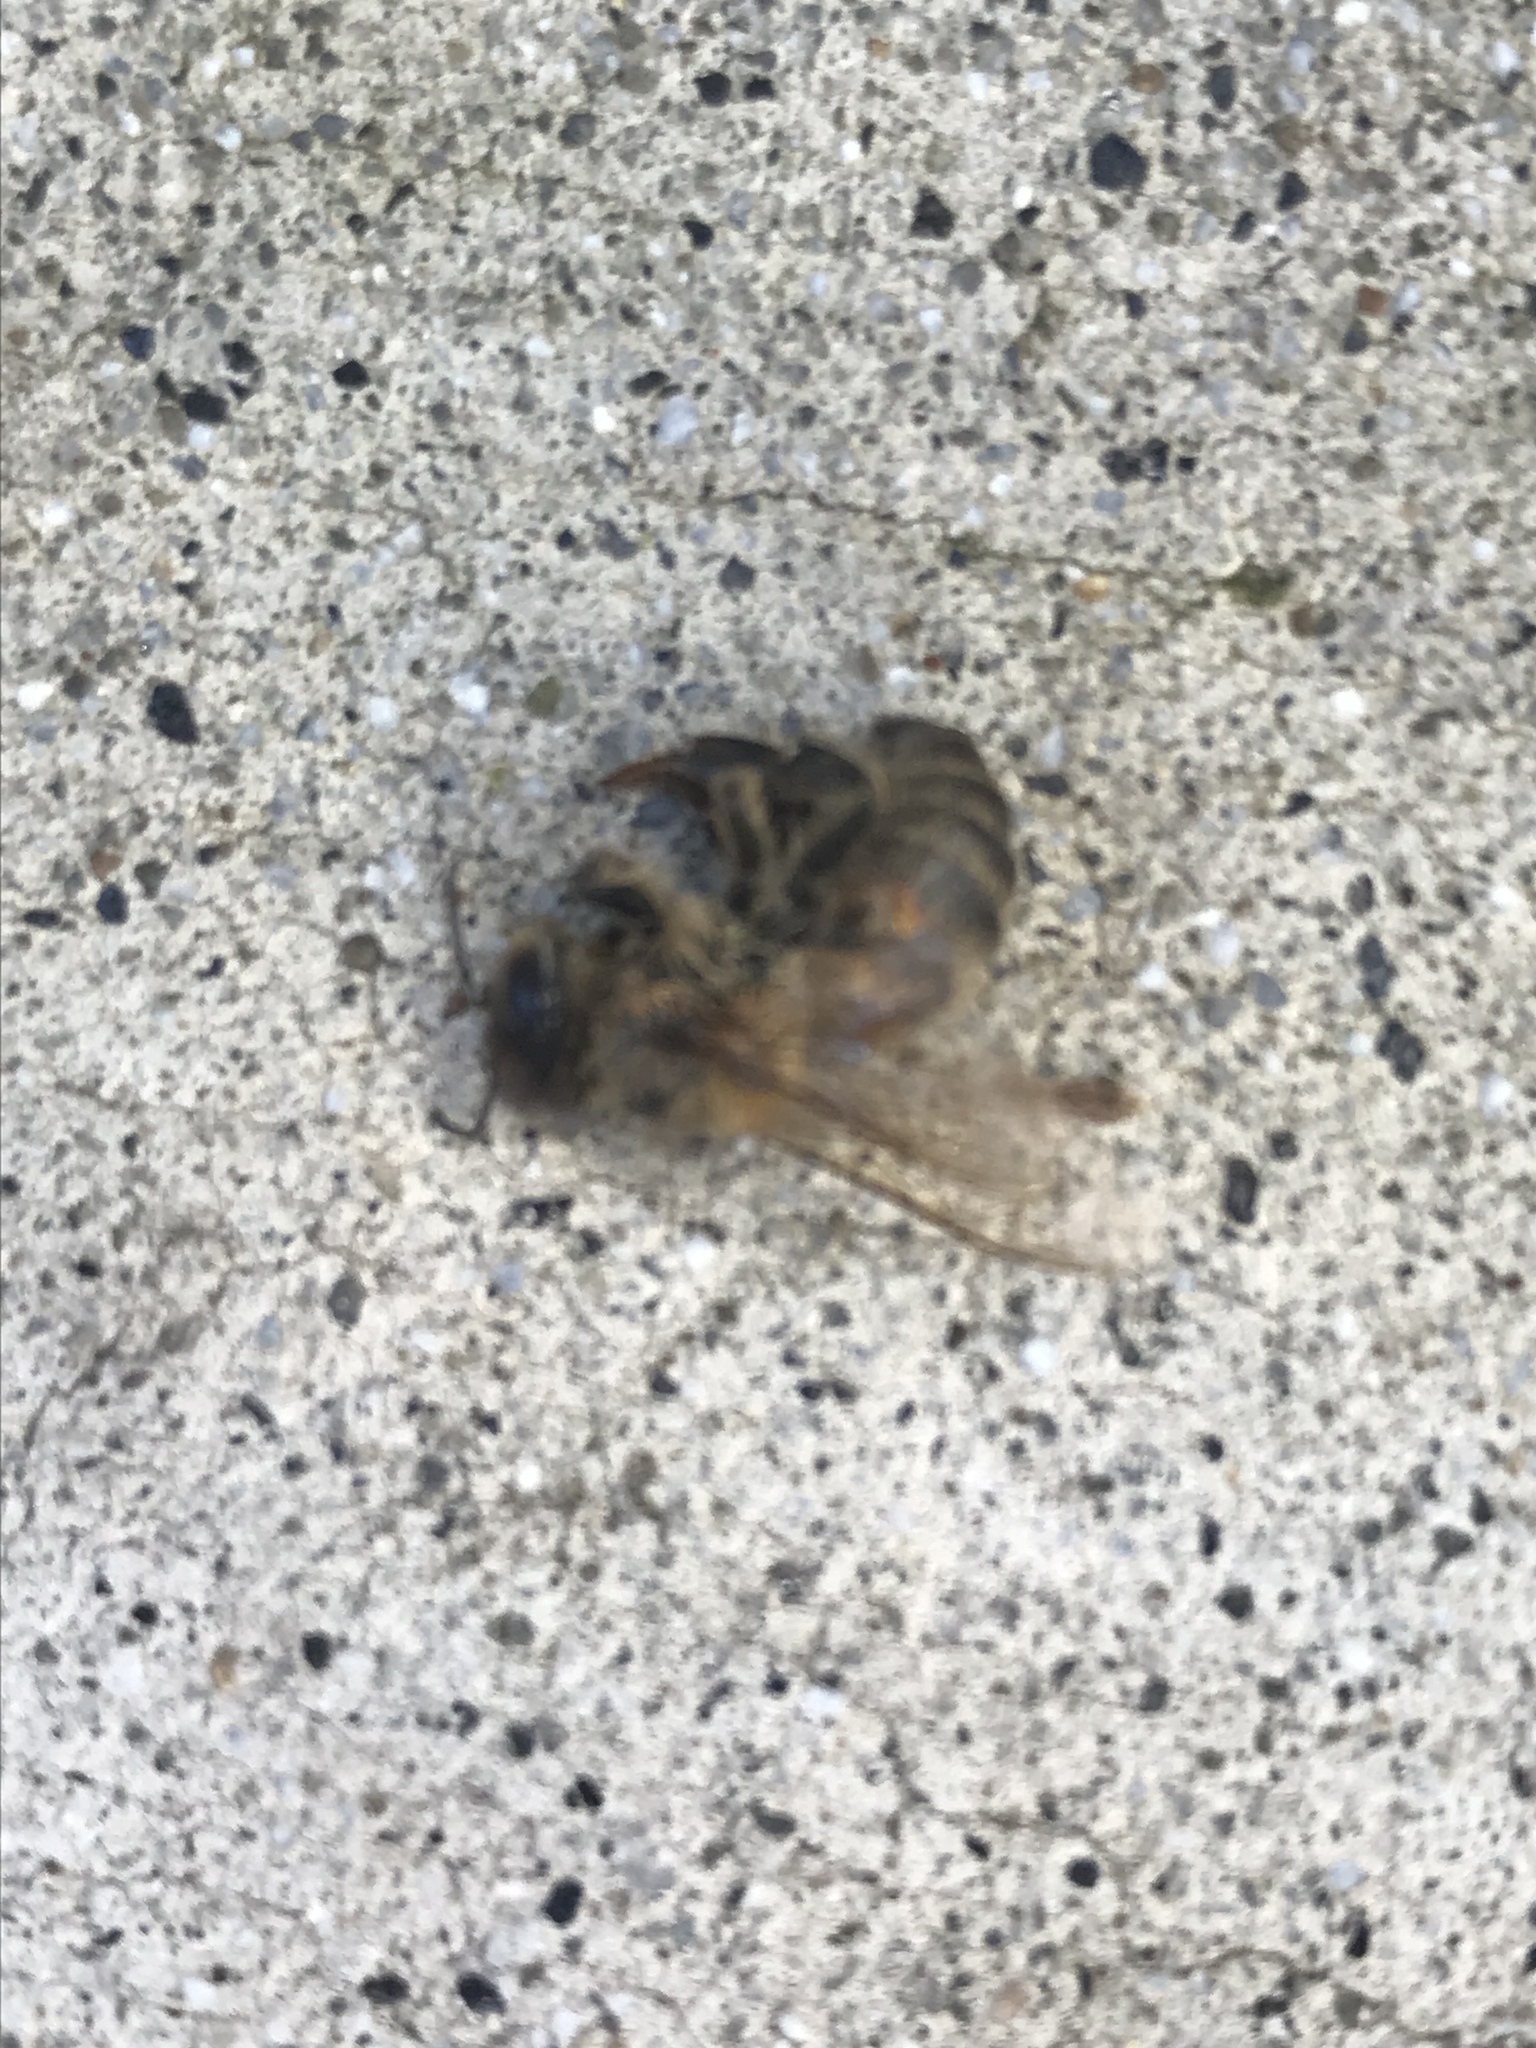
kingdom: Animalia
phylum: Arthropoda
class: Insecta
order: Hymenoptera
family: Apidae
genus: Apis
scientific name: Apis mellifera
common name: Honey bee
